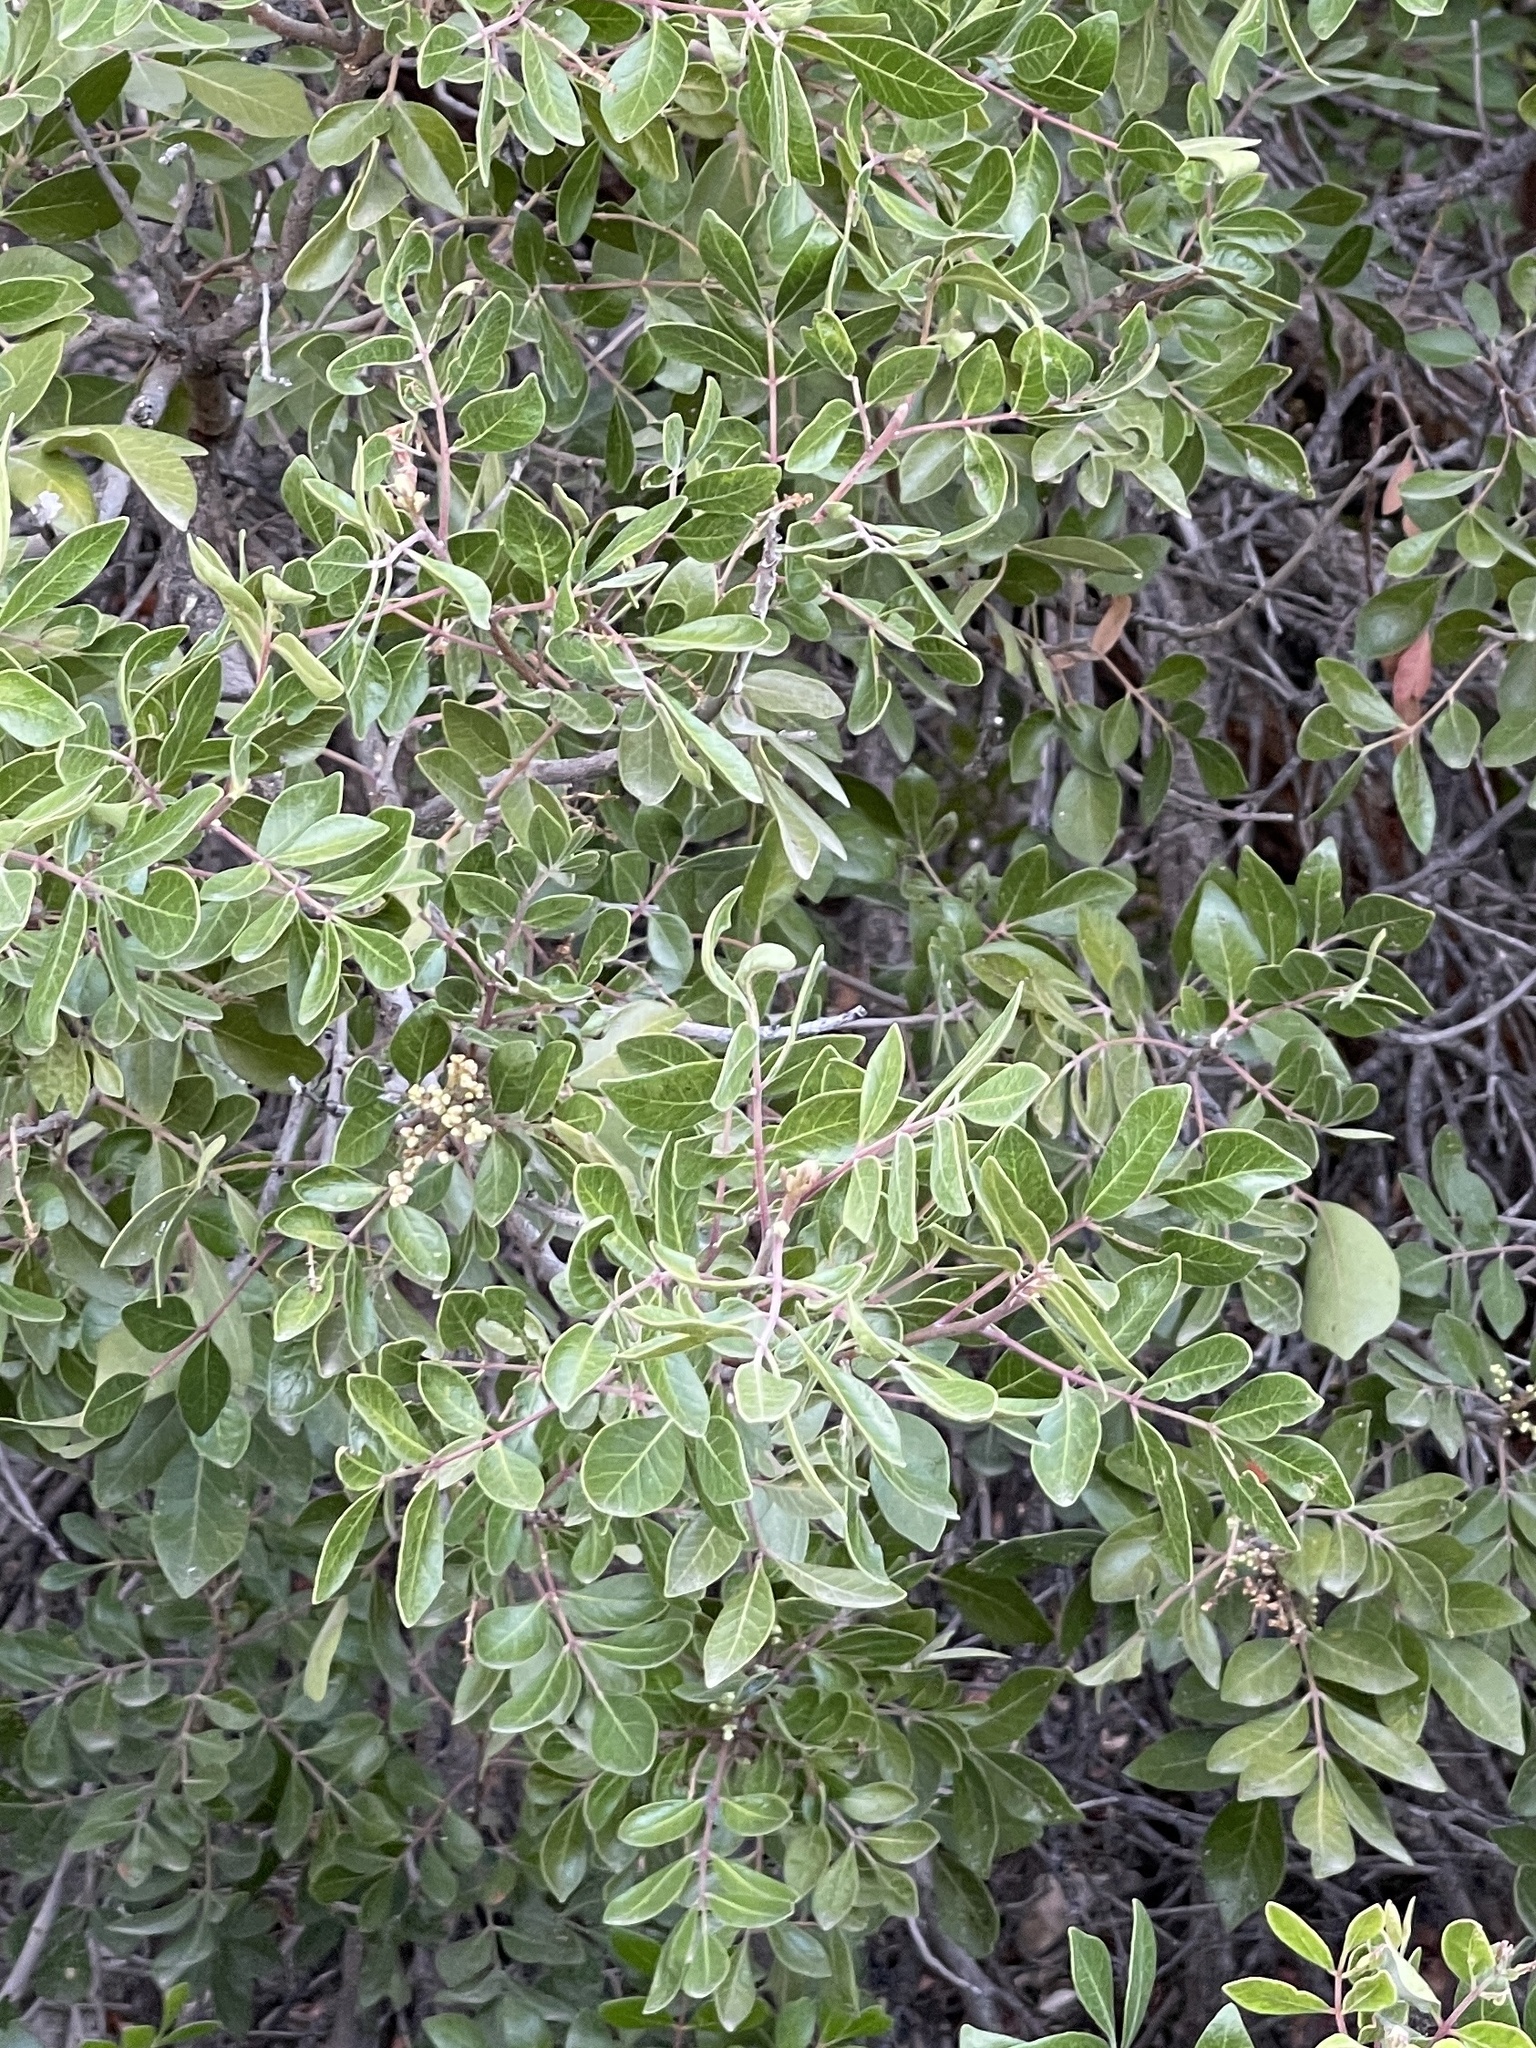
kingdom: Plantae
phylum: Tracheophyta
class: Magnoliopsida
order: Sapindales
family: Anacardiaceae
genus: Rhus
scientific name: Rhus virens
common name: Evergreen sumac
